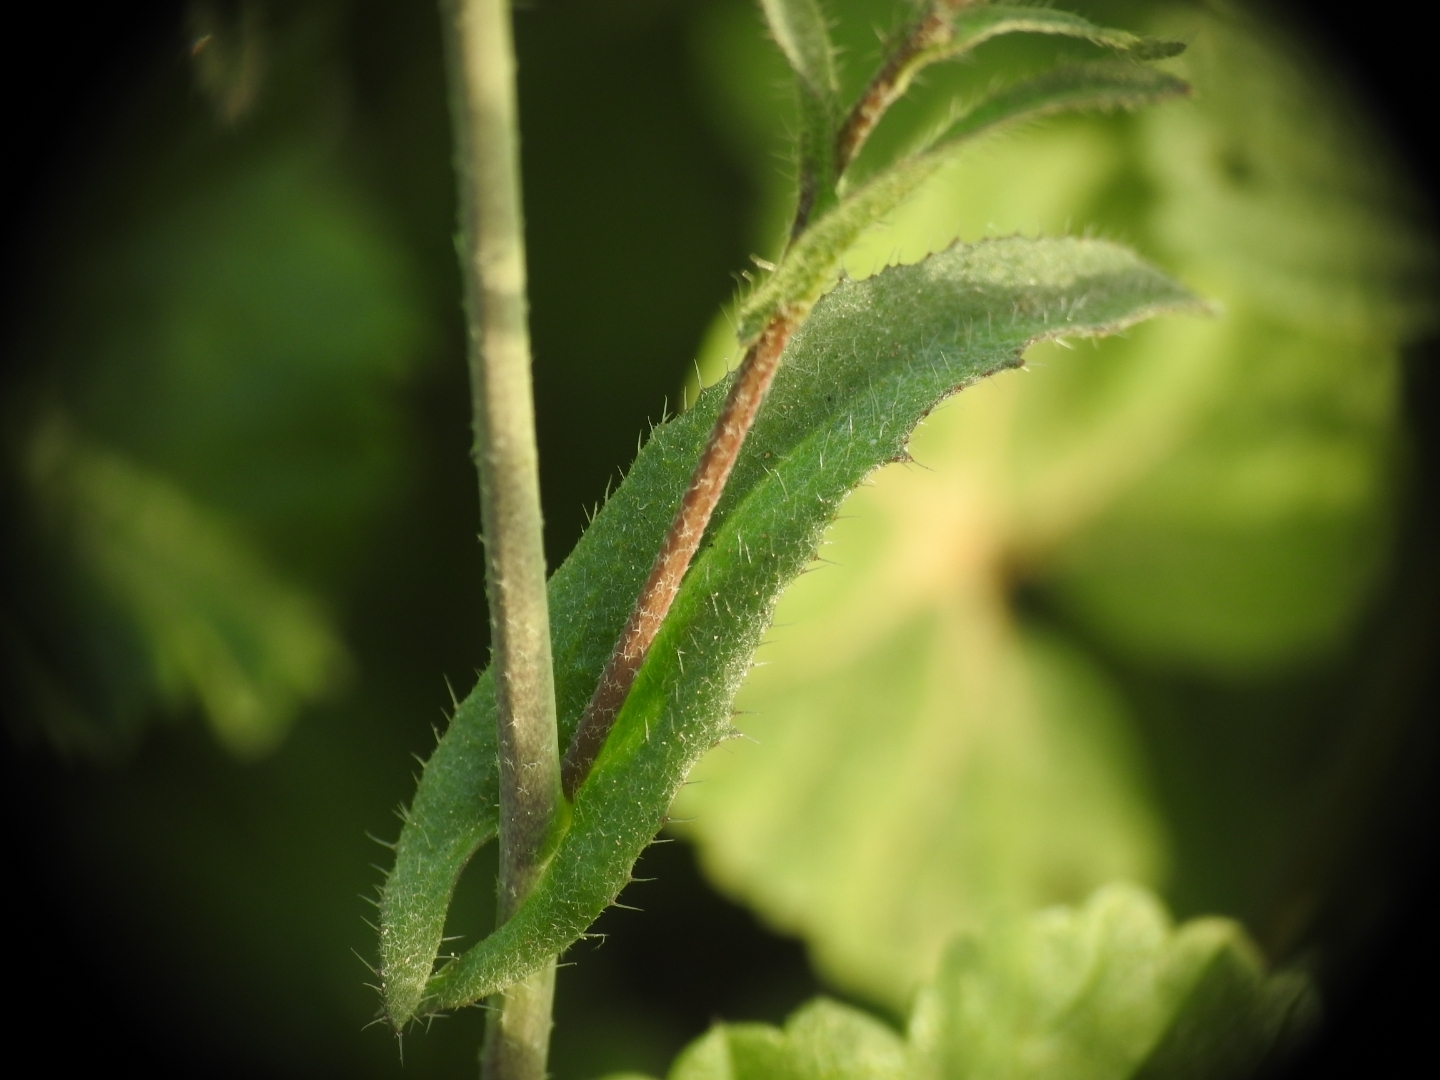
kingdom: Plantae
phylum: Tracheophyta
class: Magnoliopsida
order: Brassicales
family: Brassicaceae
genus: Capsella
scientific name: Capsella bursa-pastoris
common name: Shepherd's purse
